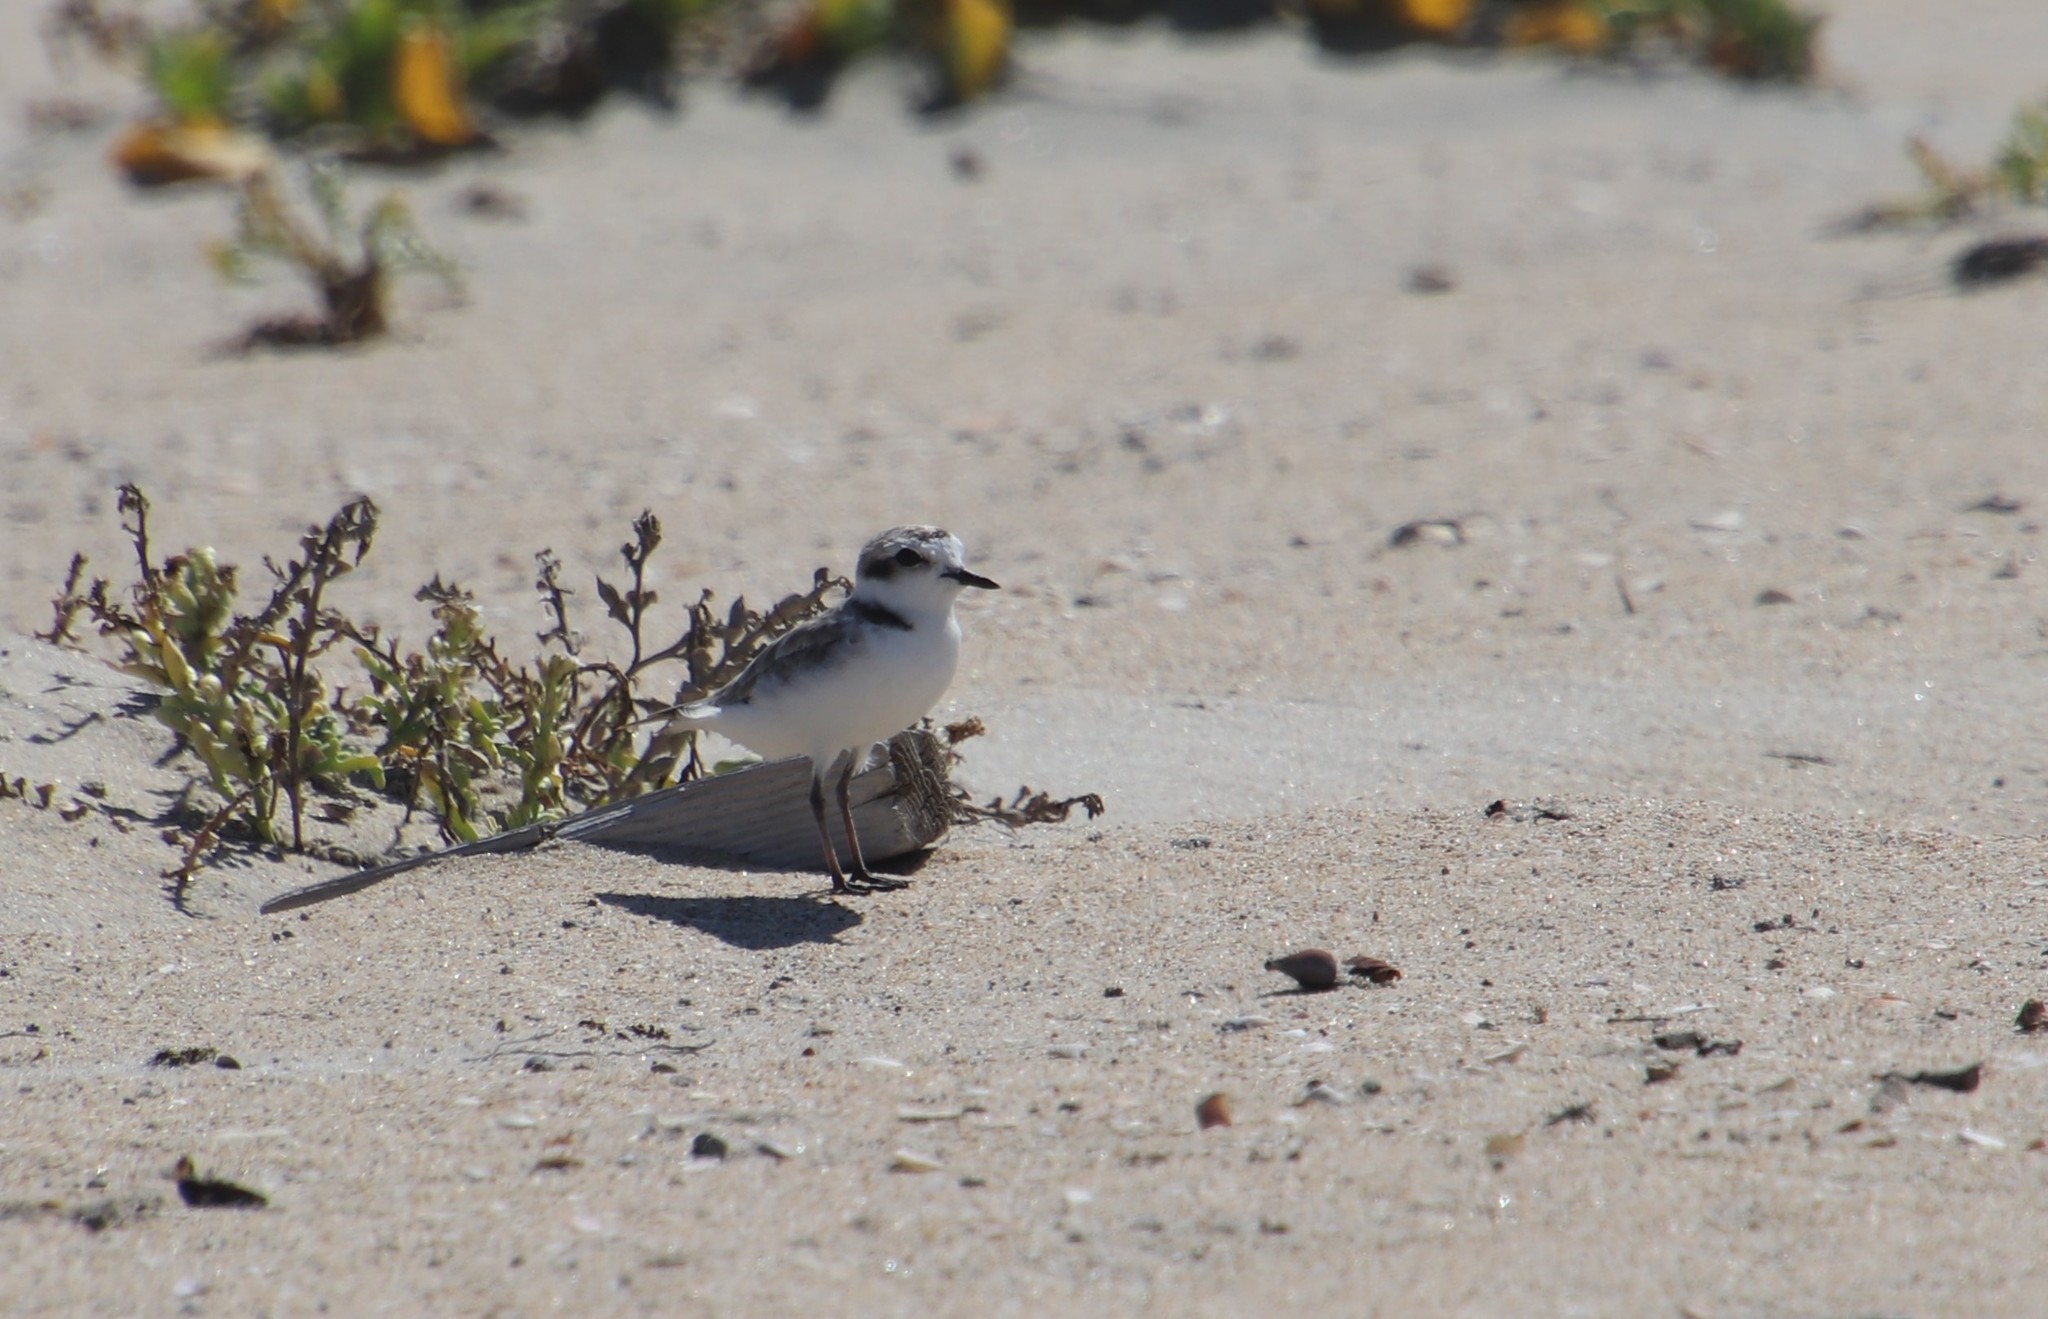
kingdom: Animalia
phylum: Chordata
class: Aves
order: Charadriiformes
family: Charadriidae
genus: Anarhynchus
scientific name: Anarhynchus
